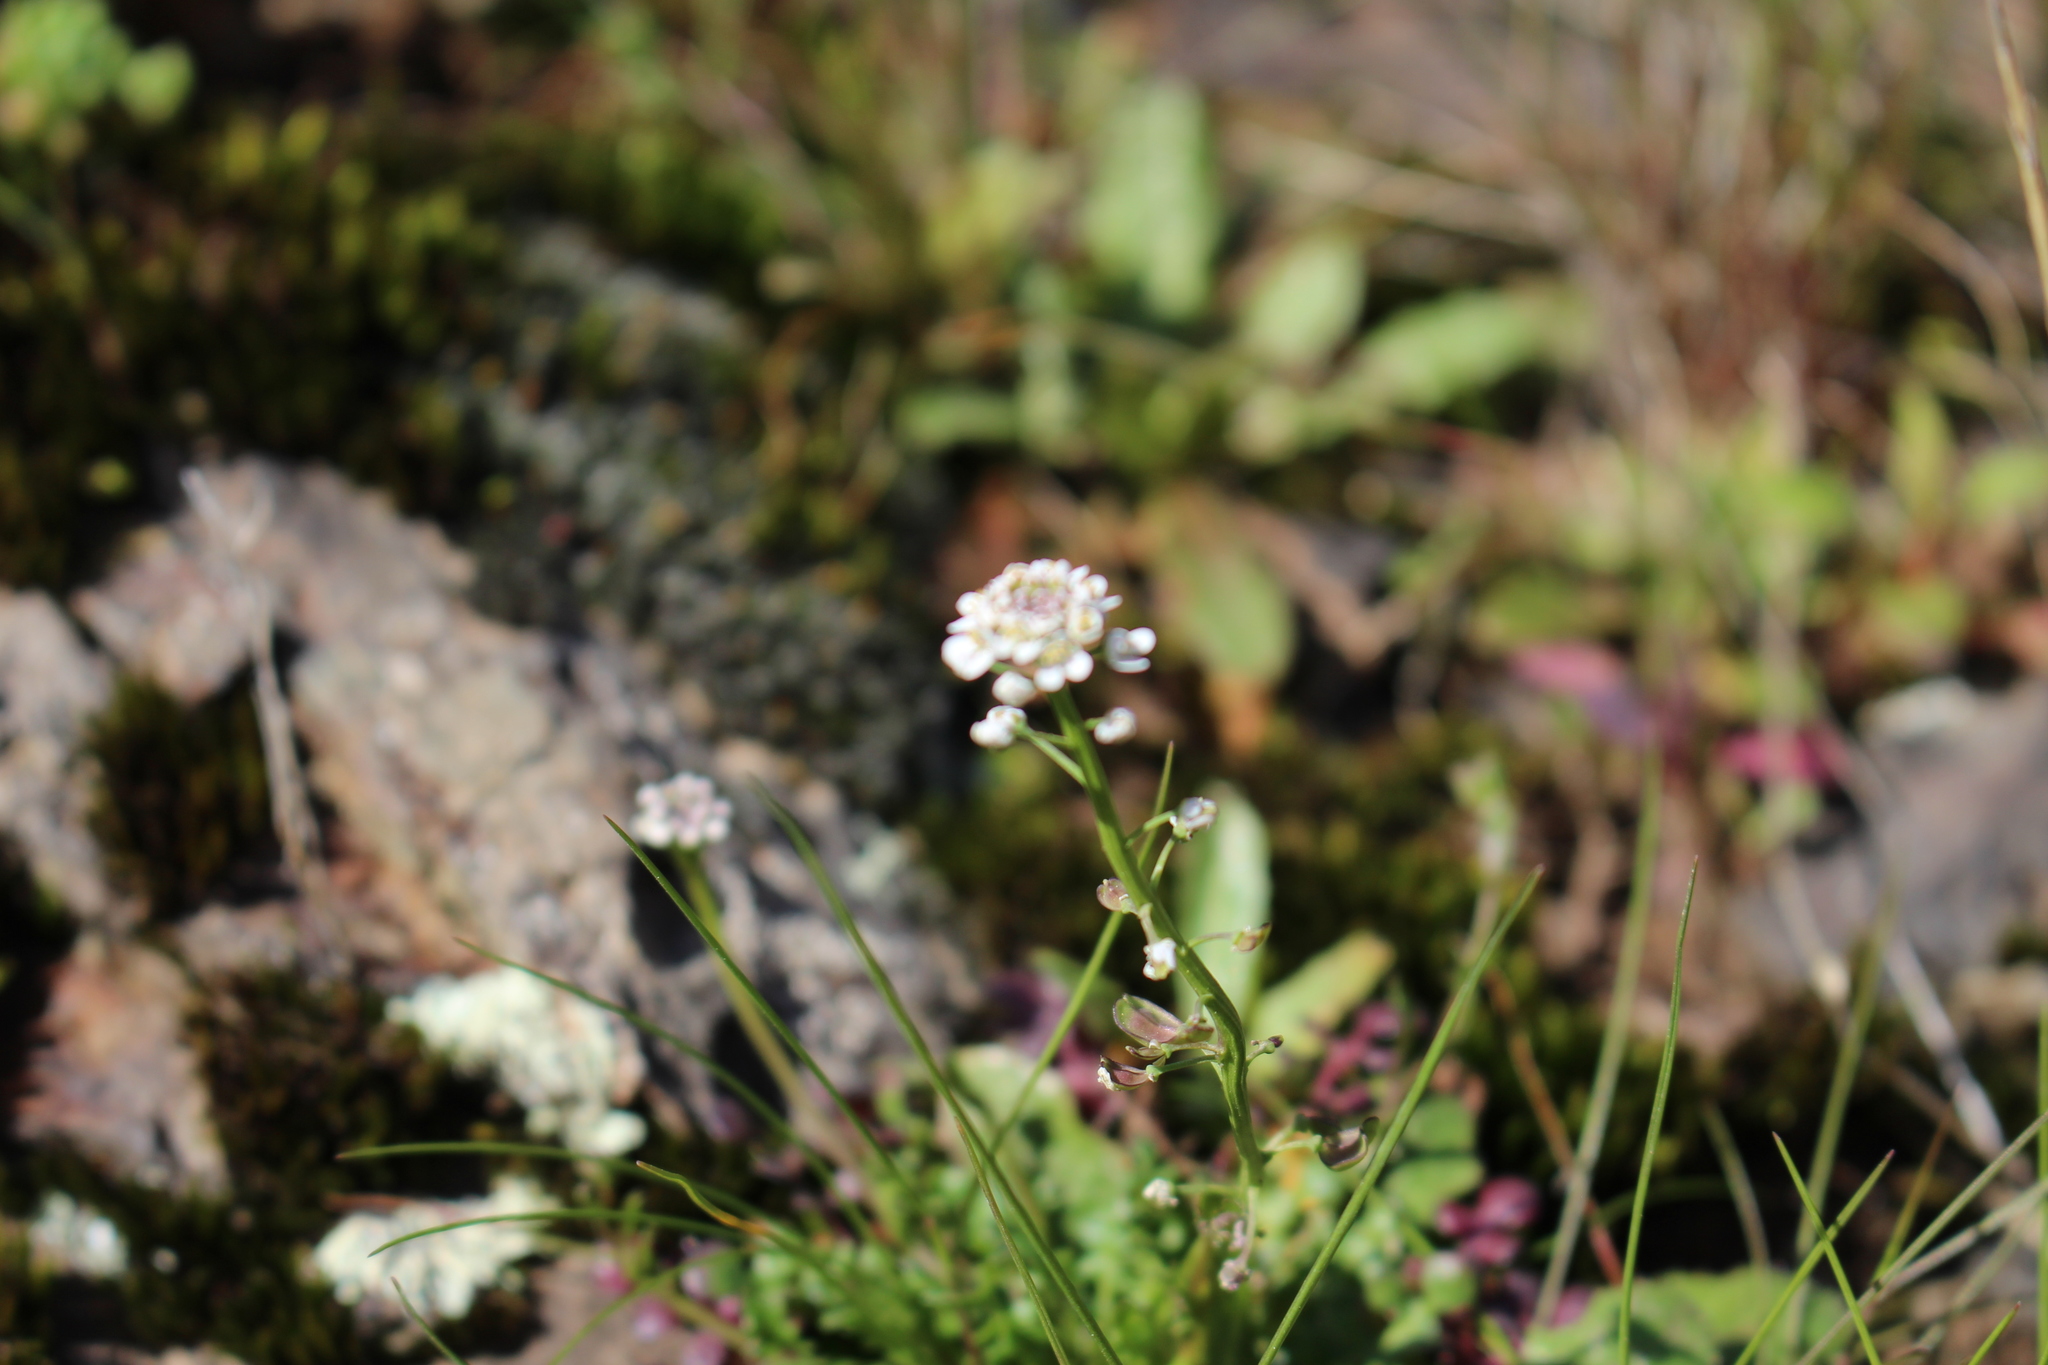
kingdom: Plantae
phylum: Tracheophyta
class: Magnoliopsida
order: Brassicales
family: Brassicaceae
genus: Teesdalia
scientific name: Teesdalia nudicaulis
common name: Shepherd's cress
